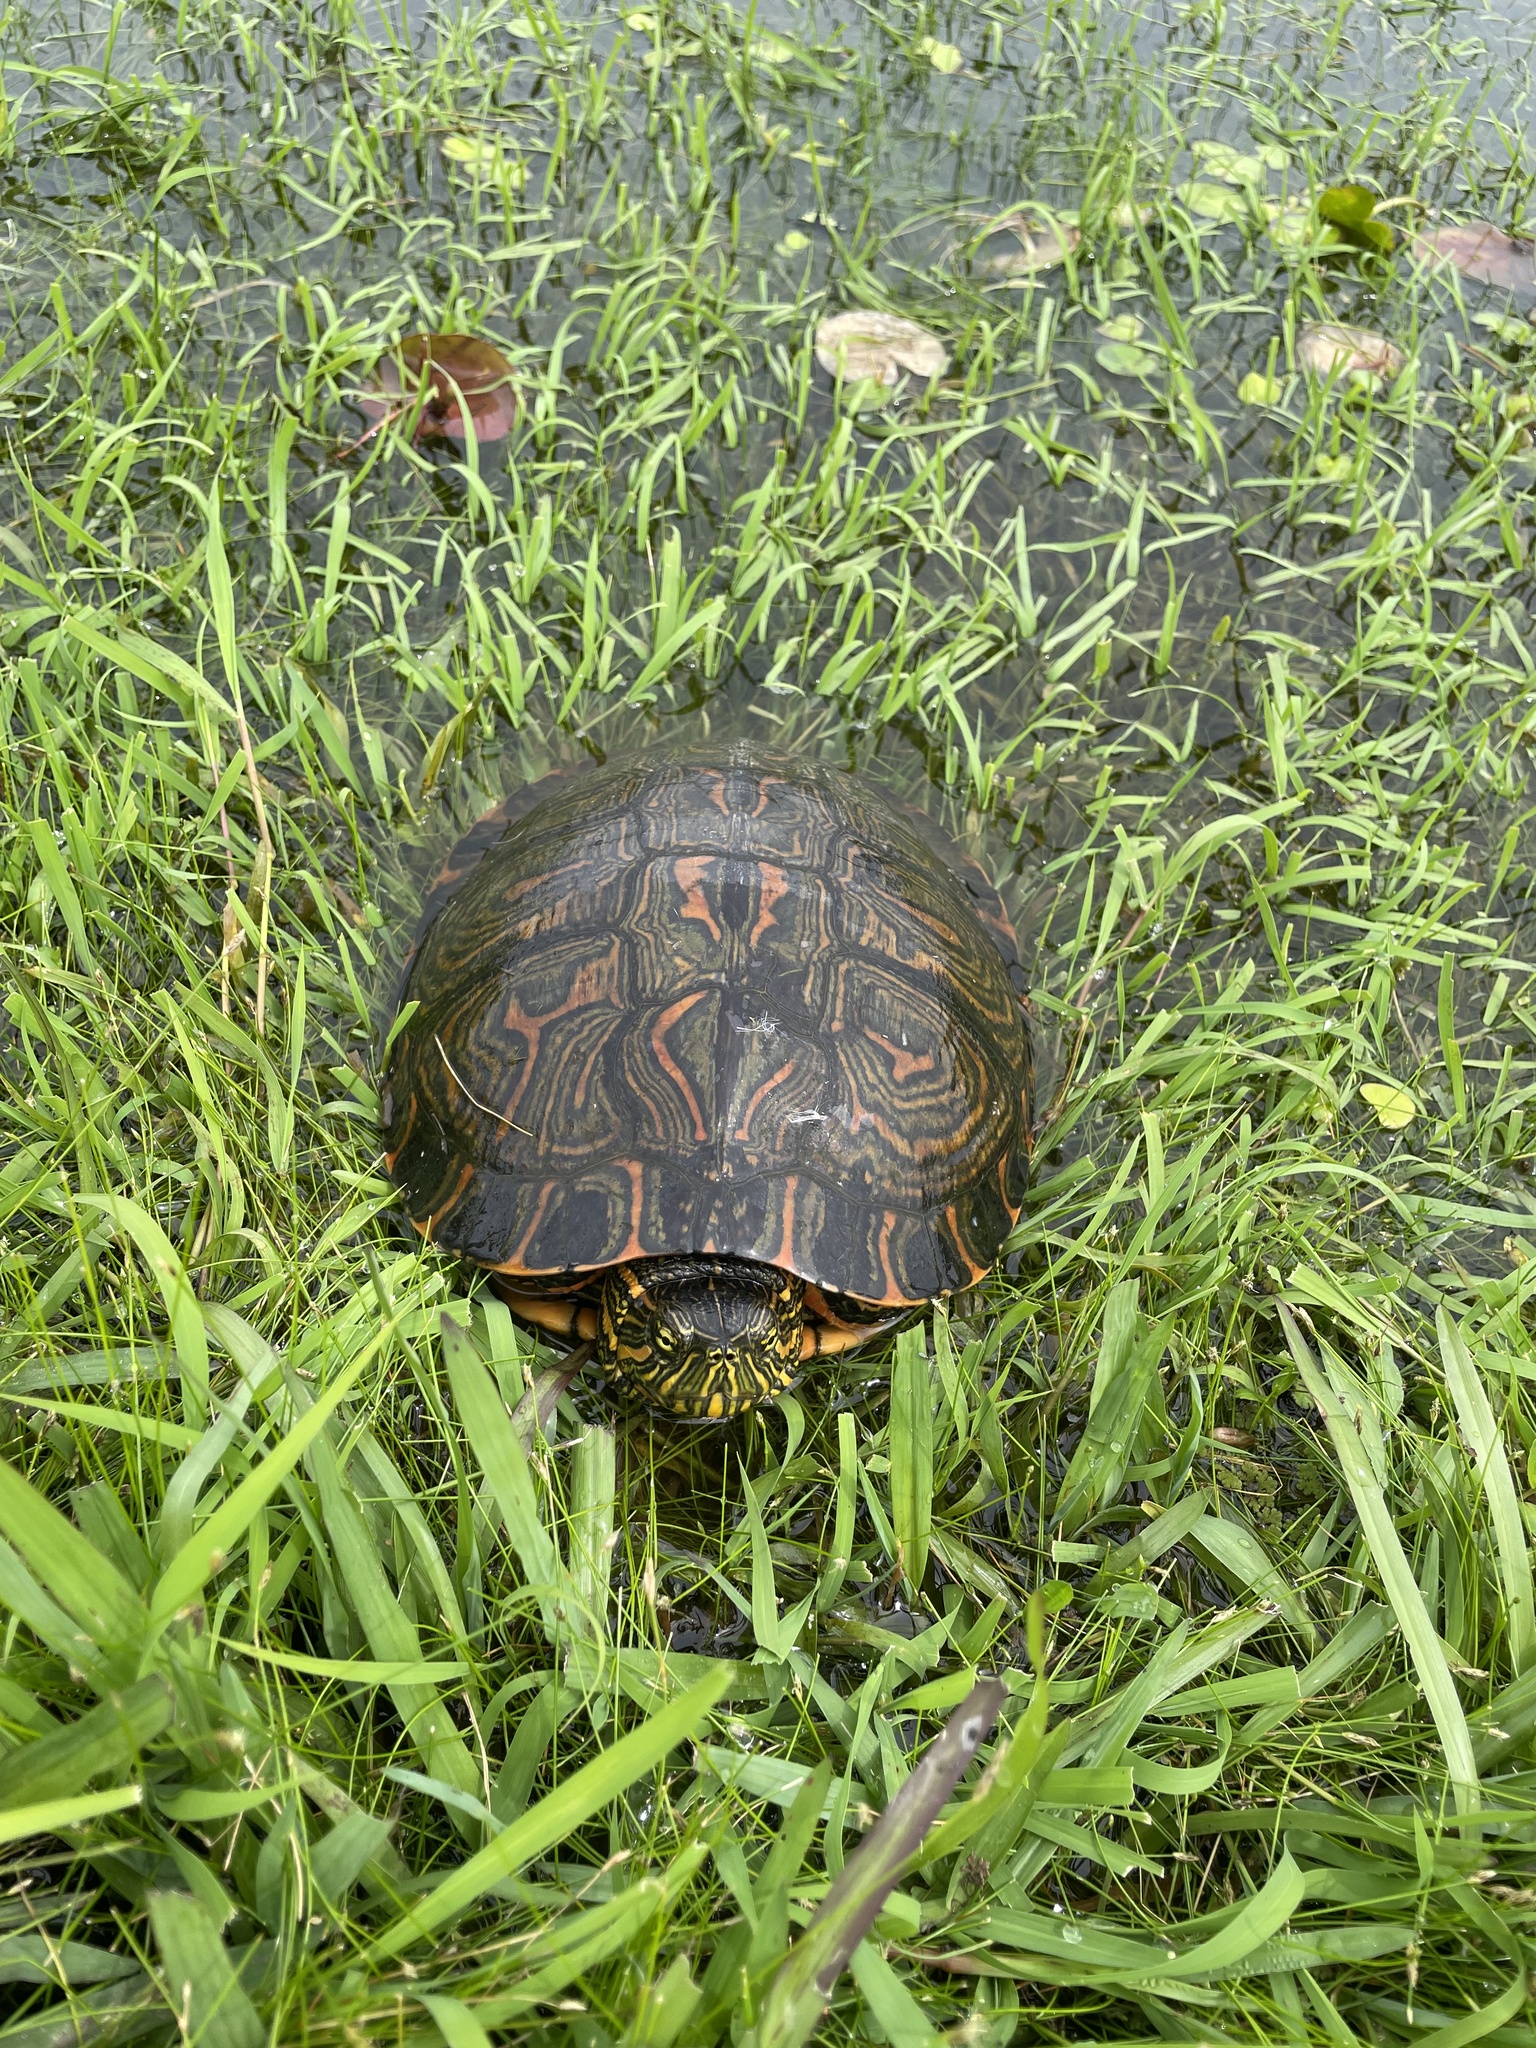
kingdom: Animalia
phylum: Chordata
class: Testudines
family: Emydidae
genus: Trachemys
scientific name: Trachemys dorbigni
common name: Black-bellied slider
